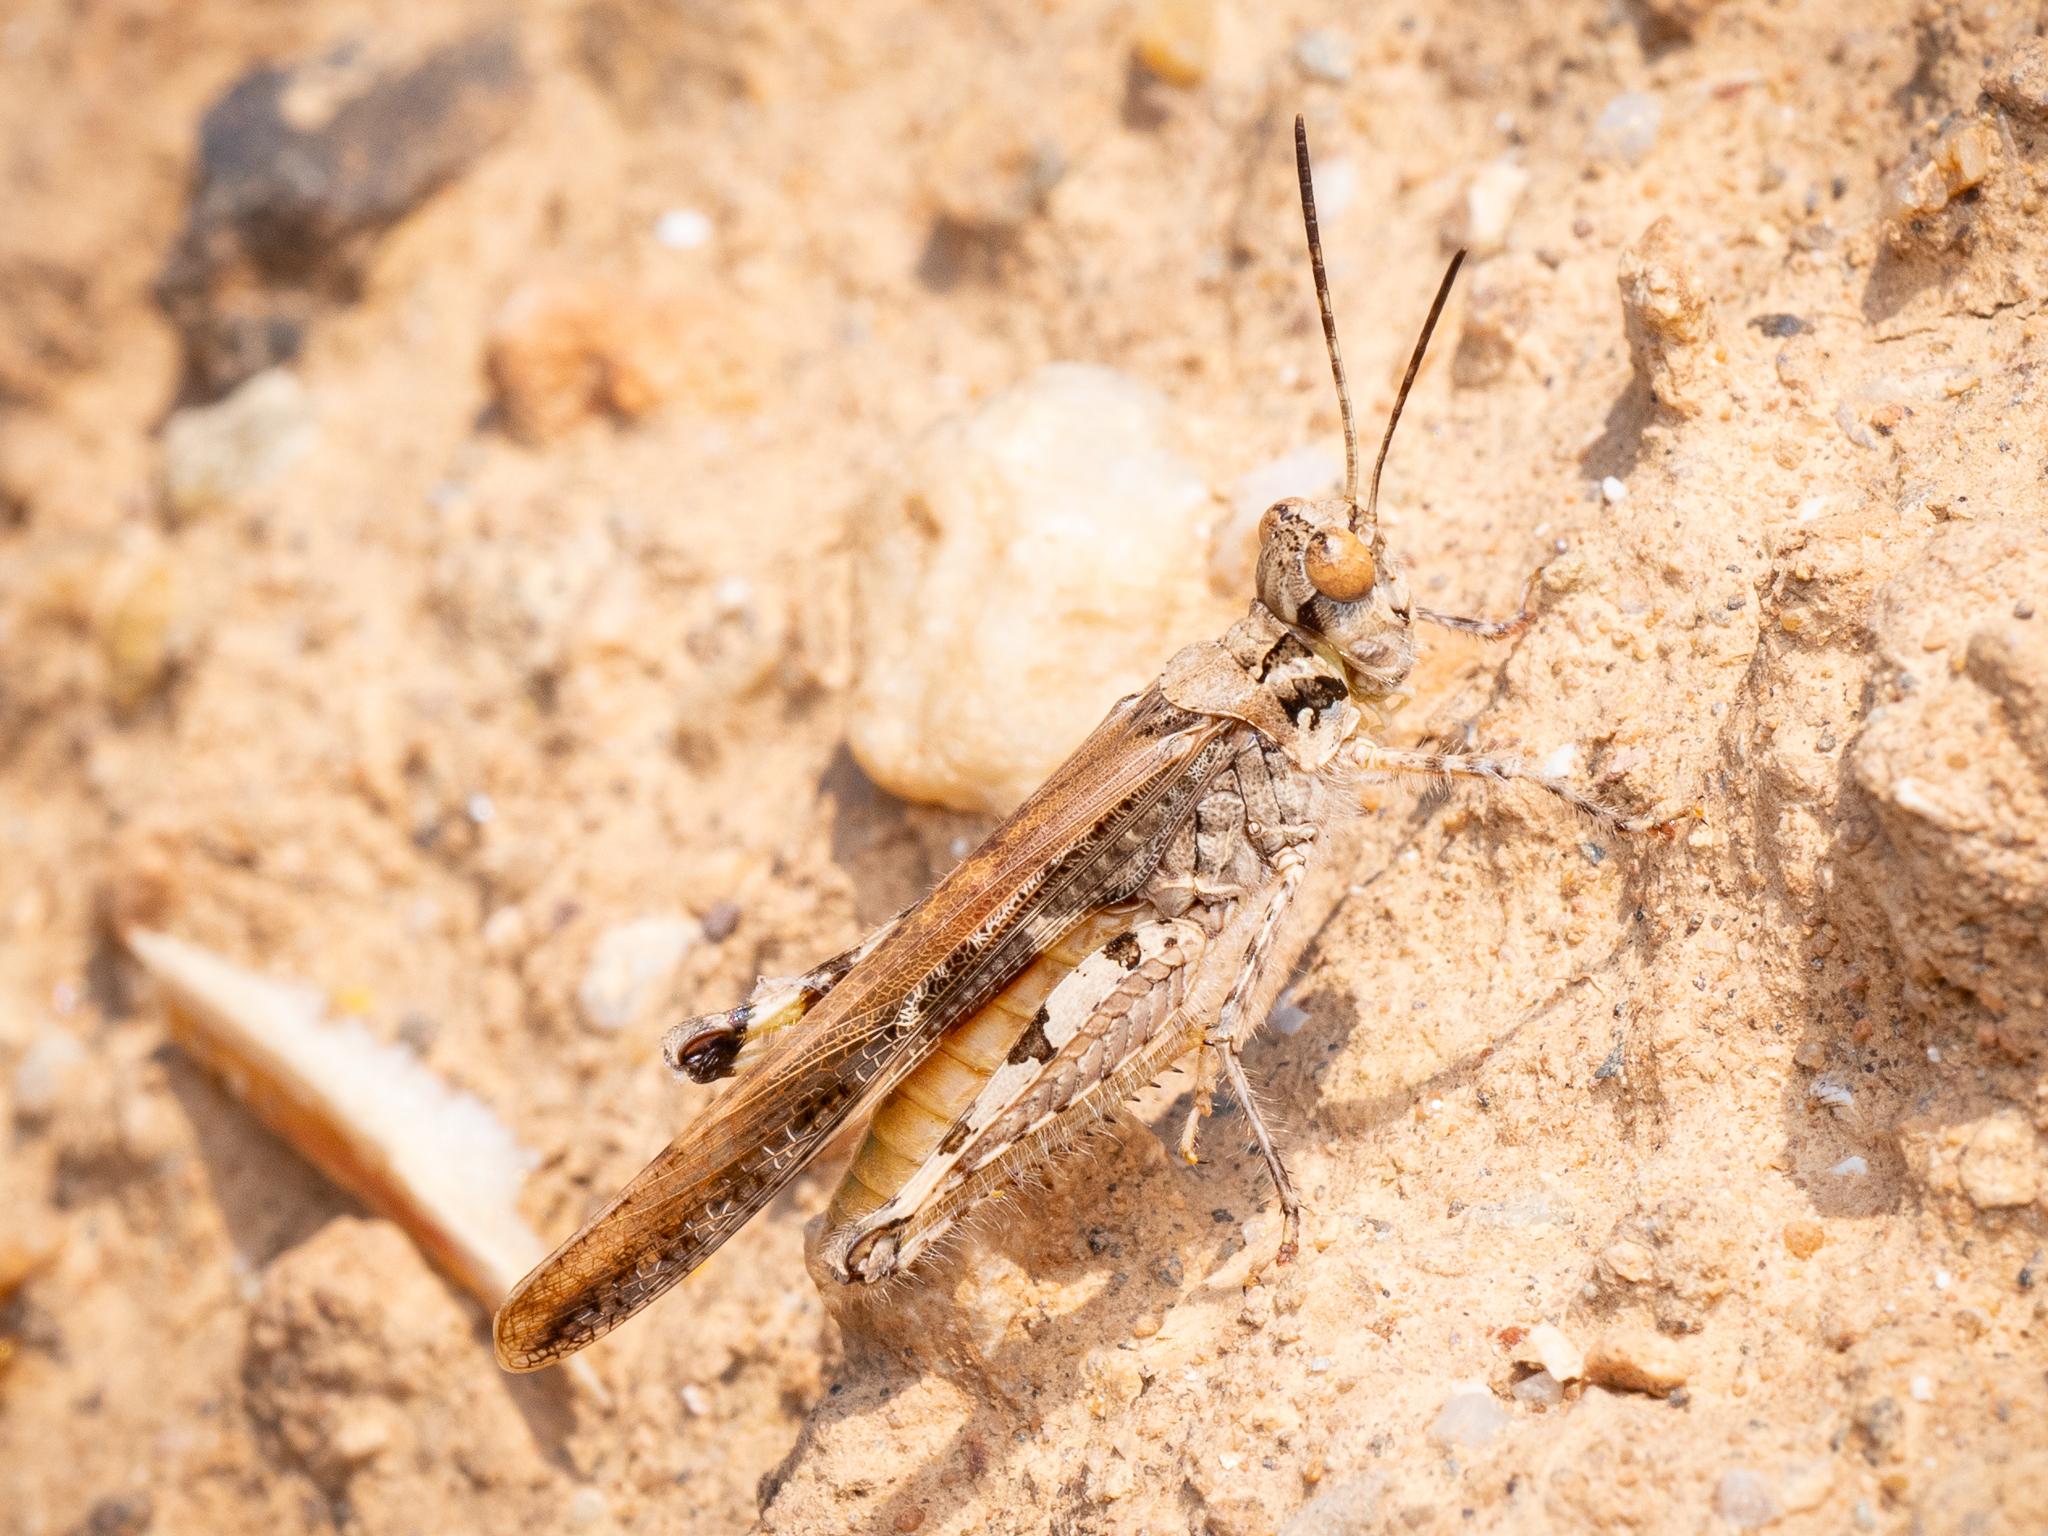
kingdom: Animalia
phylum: Arthropoda
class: Insecta
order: Orthoptera
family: Acrididae
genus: Acrotylus
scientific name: Acrotylus patruelis
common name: Slender burrowing grasshopper
